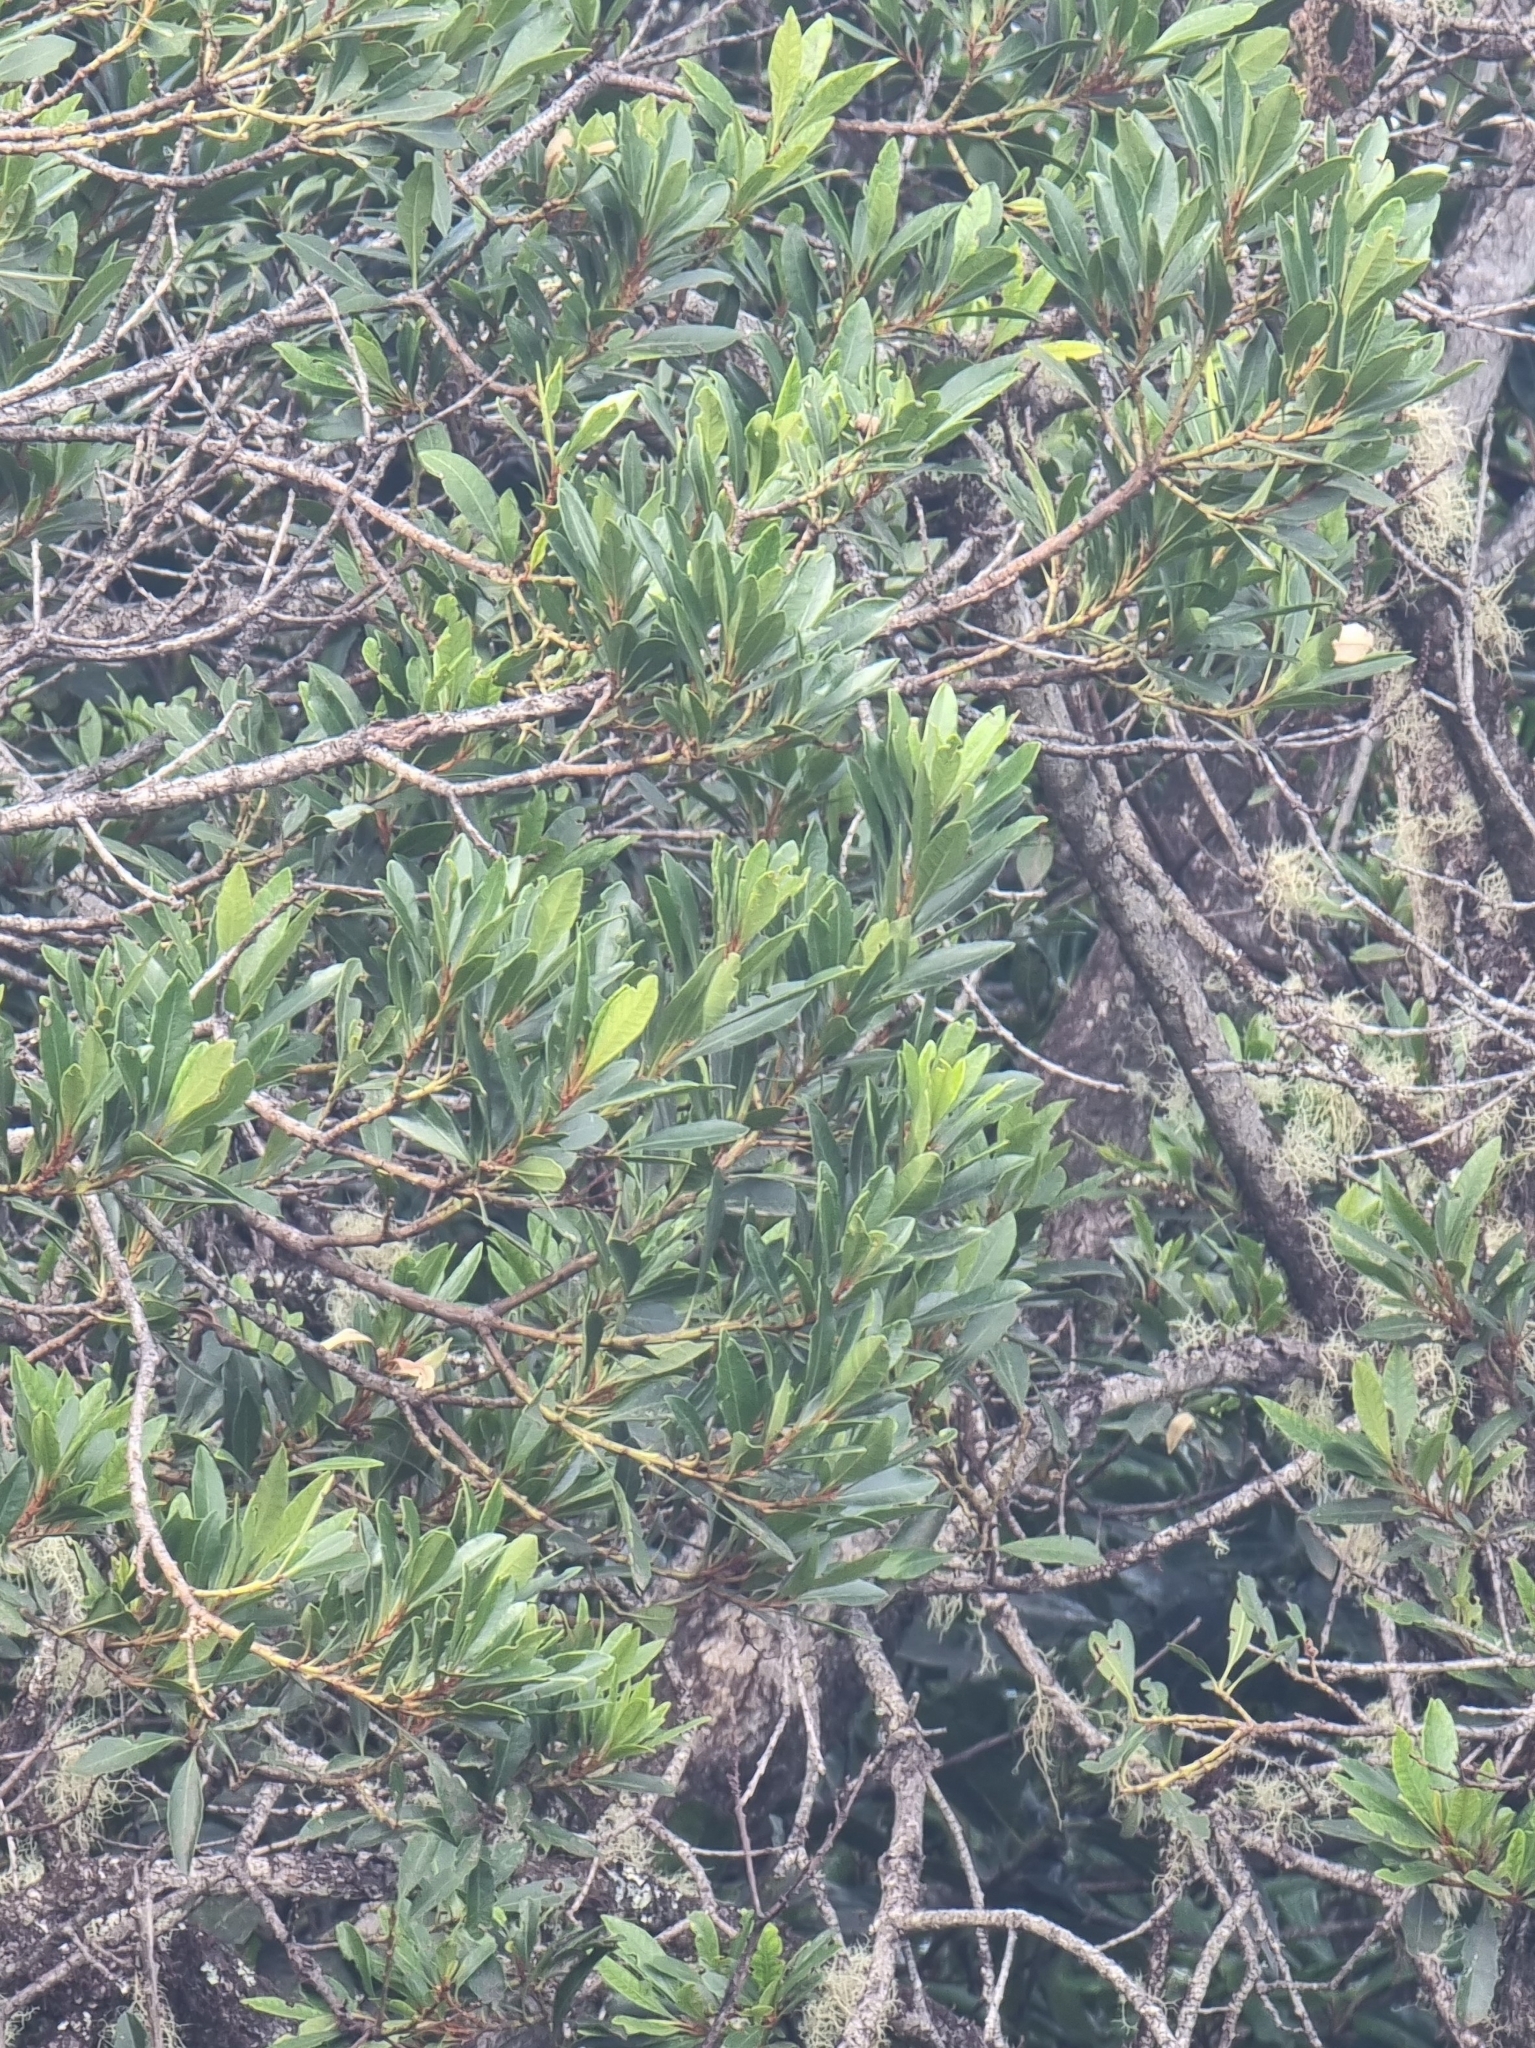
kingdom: Plantae
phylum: Tracheophyta
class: Magnoliopsida
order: Fagales
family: Myricaceae
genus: Morella
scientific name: Morella faya
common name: Firetree
